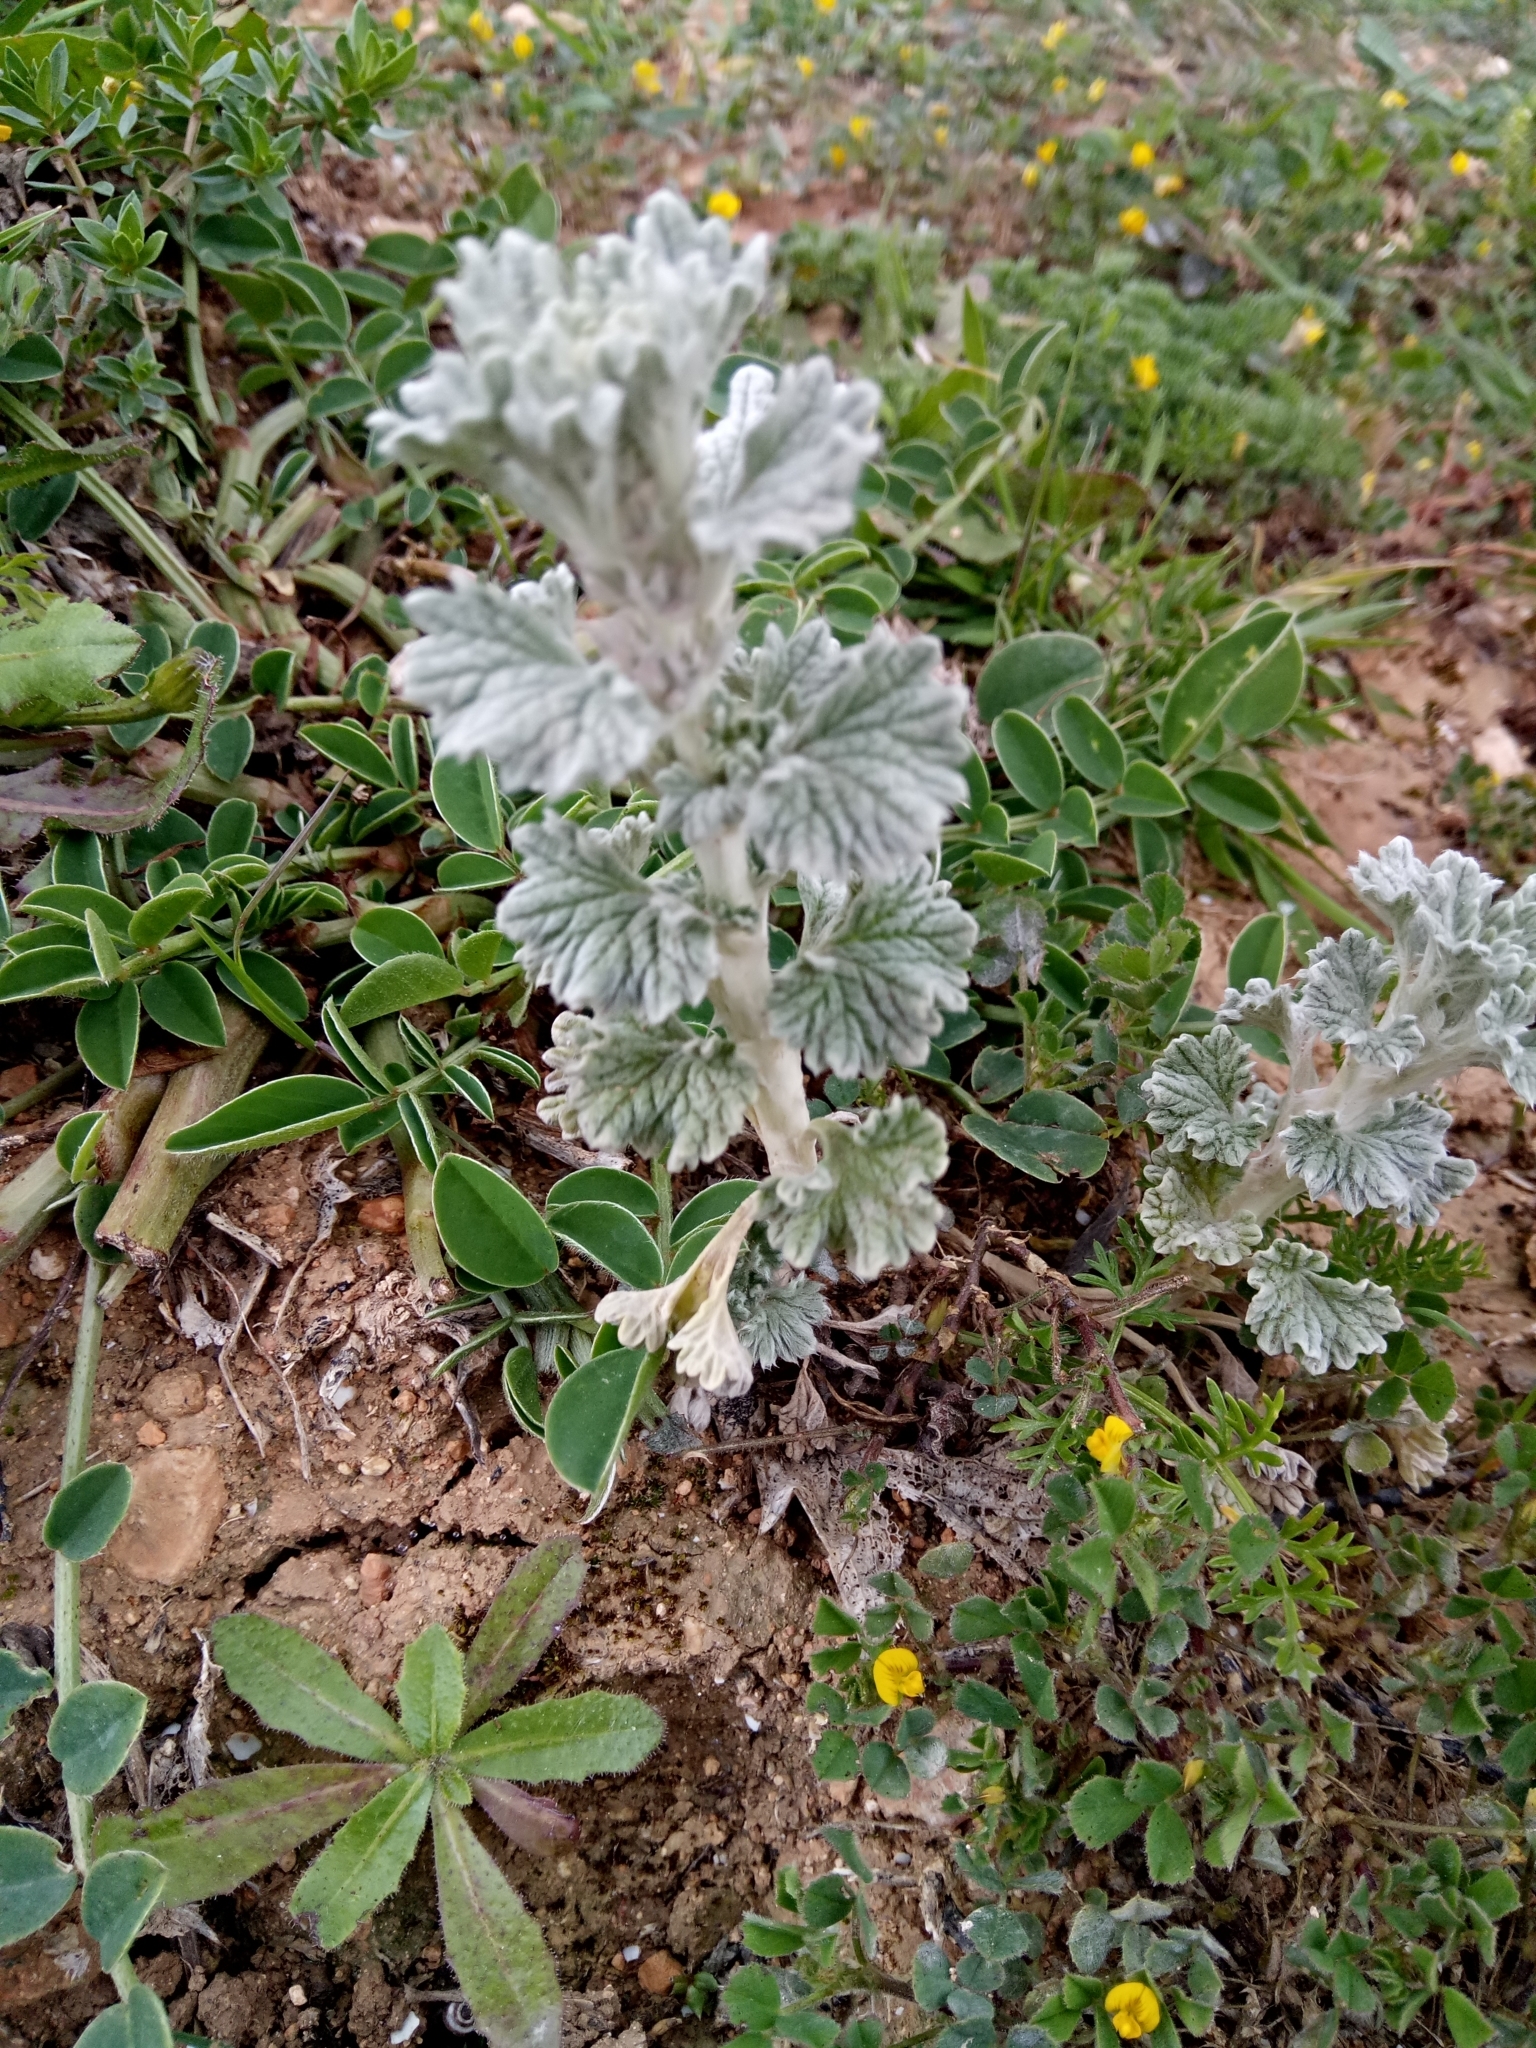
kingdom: Plantae
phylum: Tracheophyta
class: Magnoliopsida
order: Lamiales
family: Lamiaceae
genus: Marrubium
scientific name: Marrubium alysson
